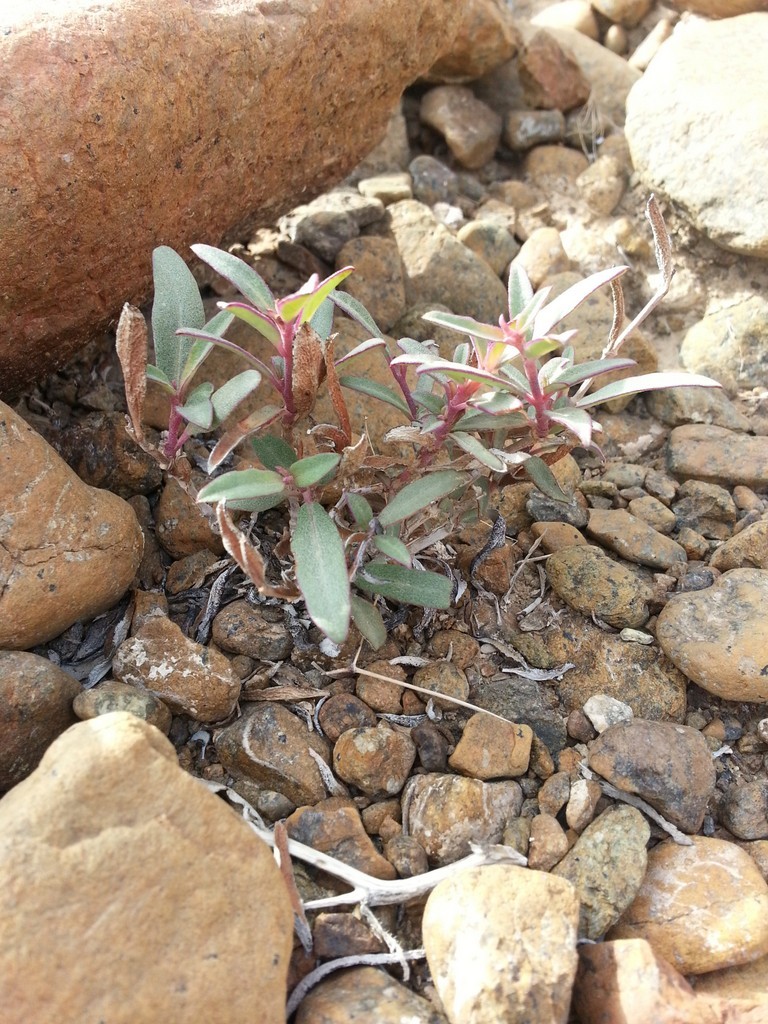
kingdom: Plantae
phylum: Tracheophyta
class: Magnoliopsida
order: Caryophyllales
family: Nyctaginaceae
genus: Boerhavia
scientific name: Boerhavia elegans
